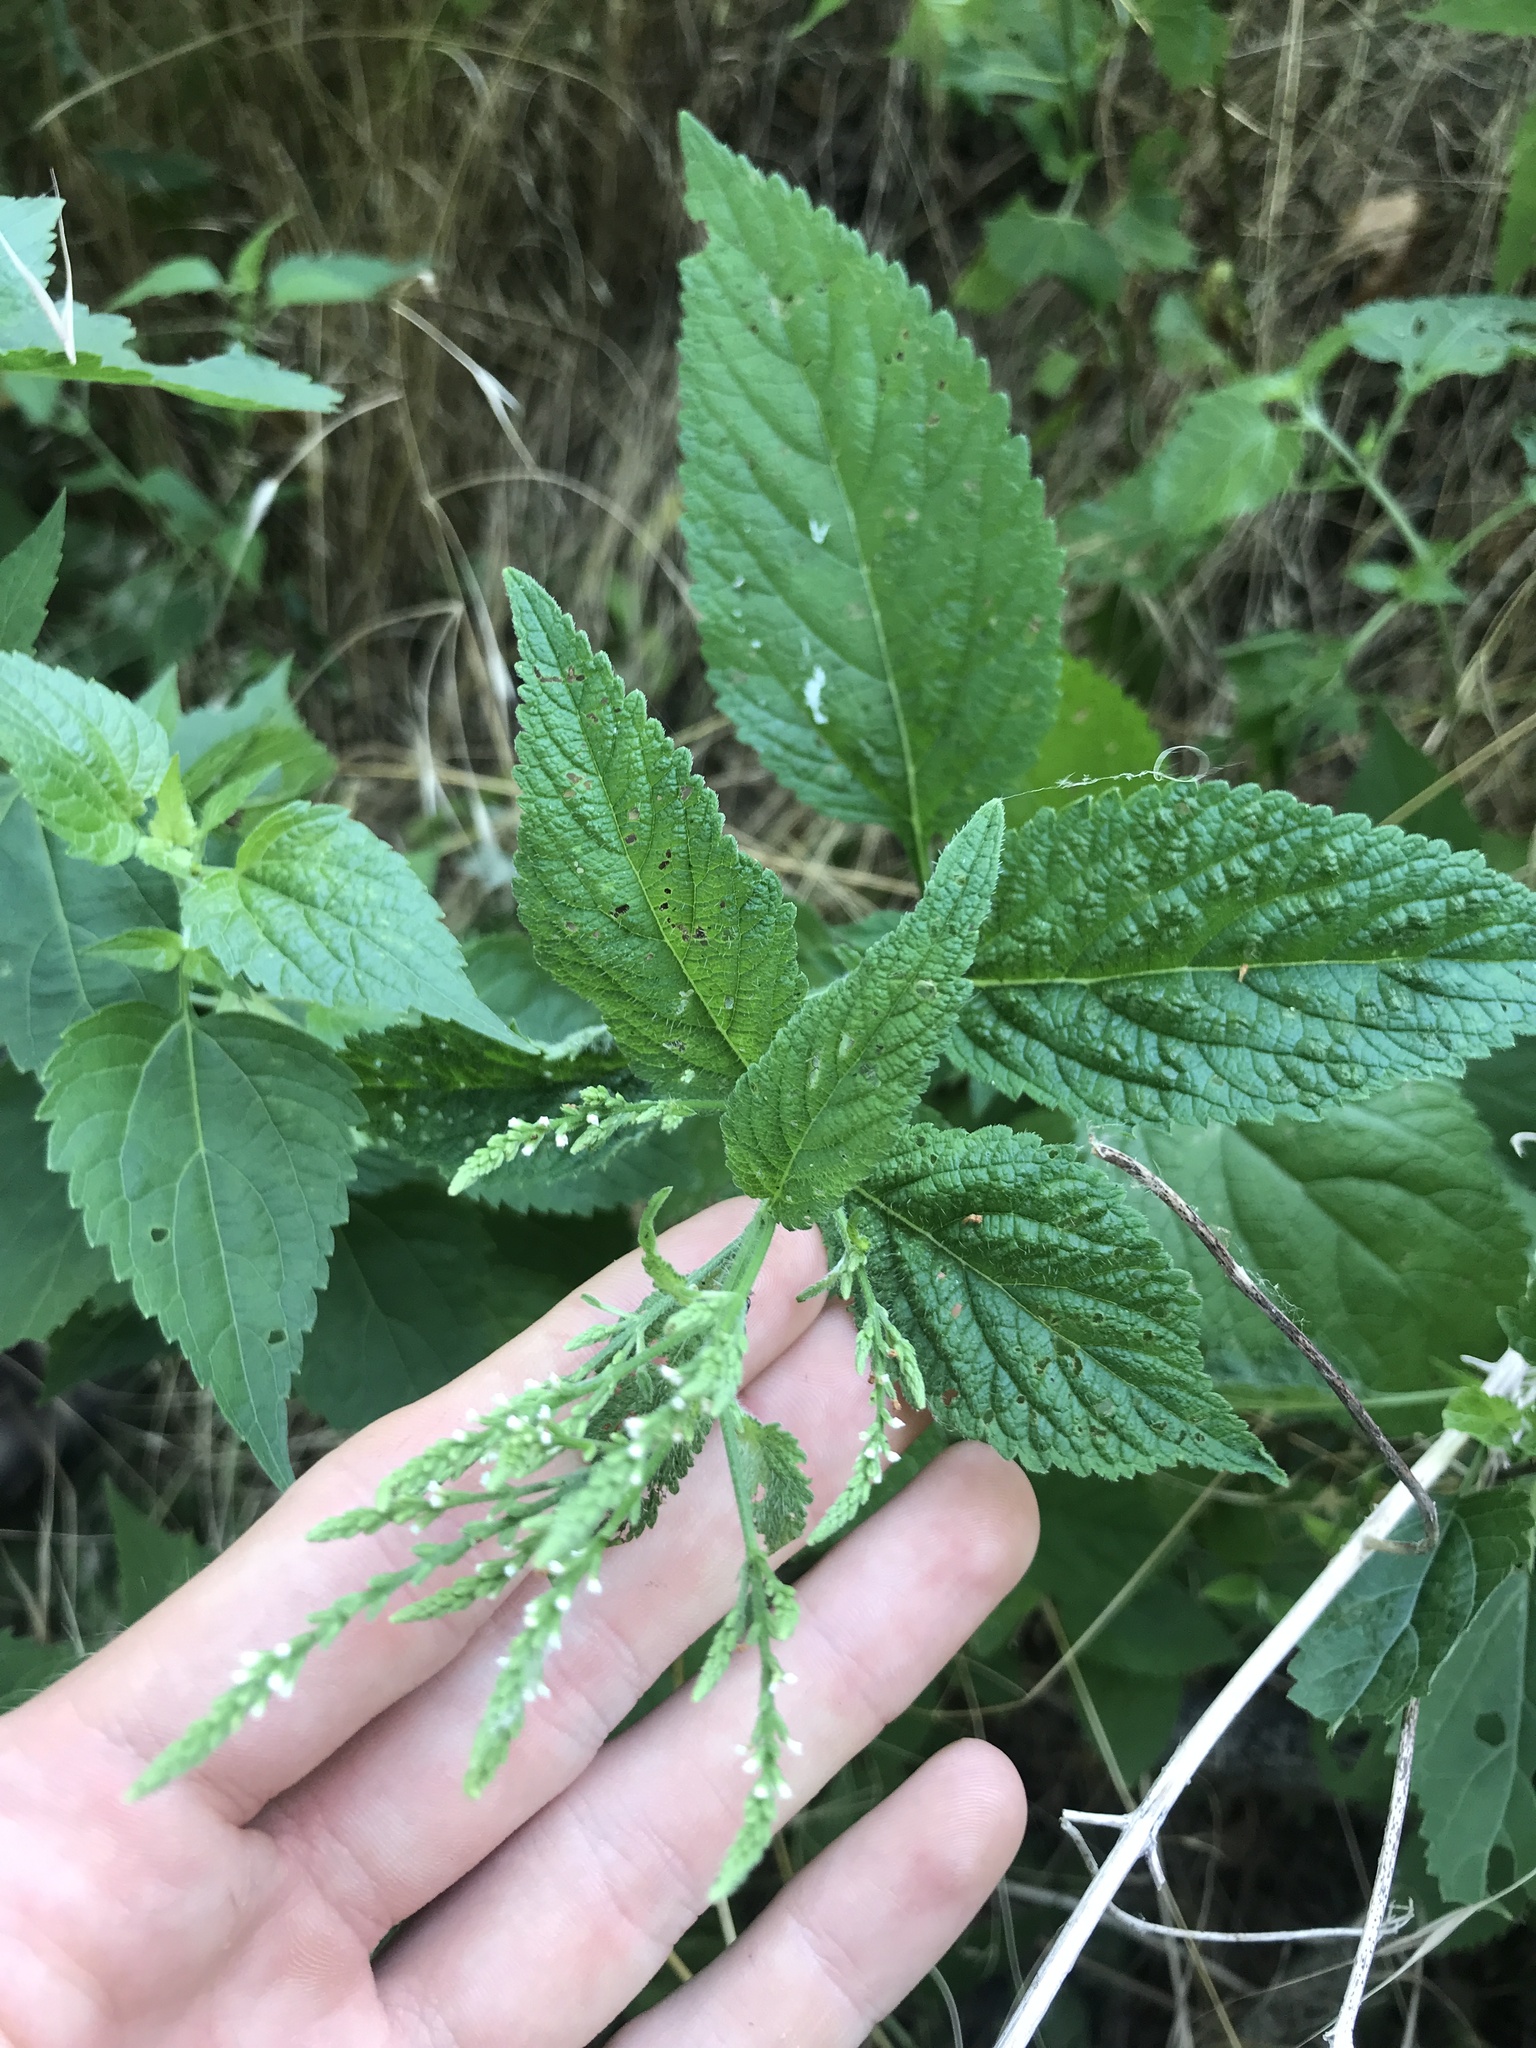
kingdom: Plantae
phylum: Tracheophyta
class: Magnoliopsida
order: Lamiales
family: Verbenaceae
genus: Verbena
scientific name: Verbena urticifolia
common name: Nettle-leaved vervain
